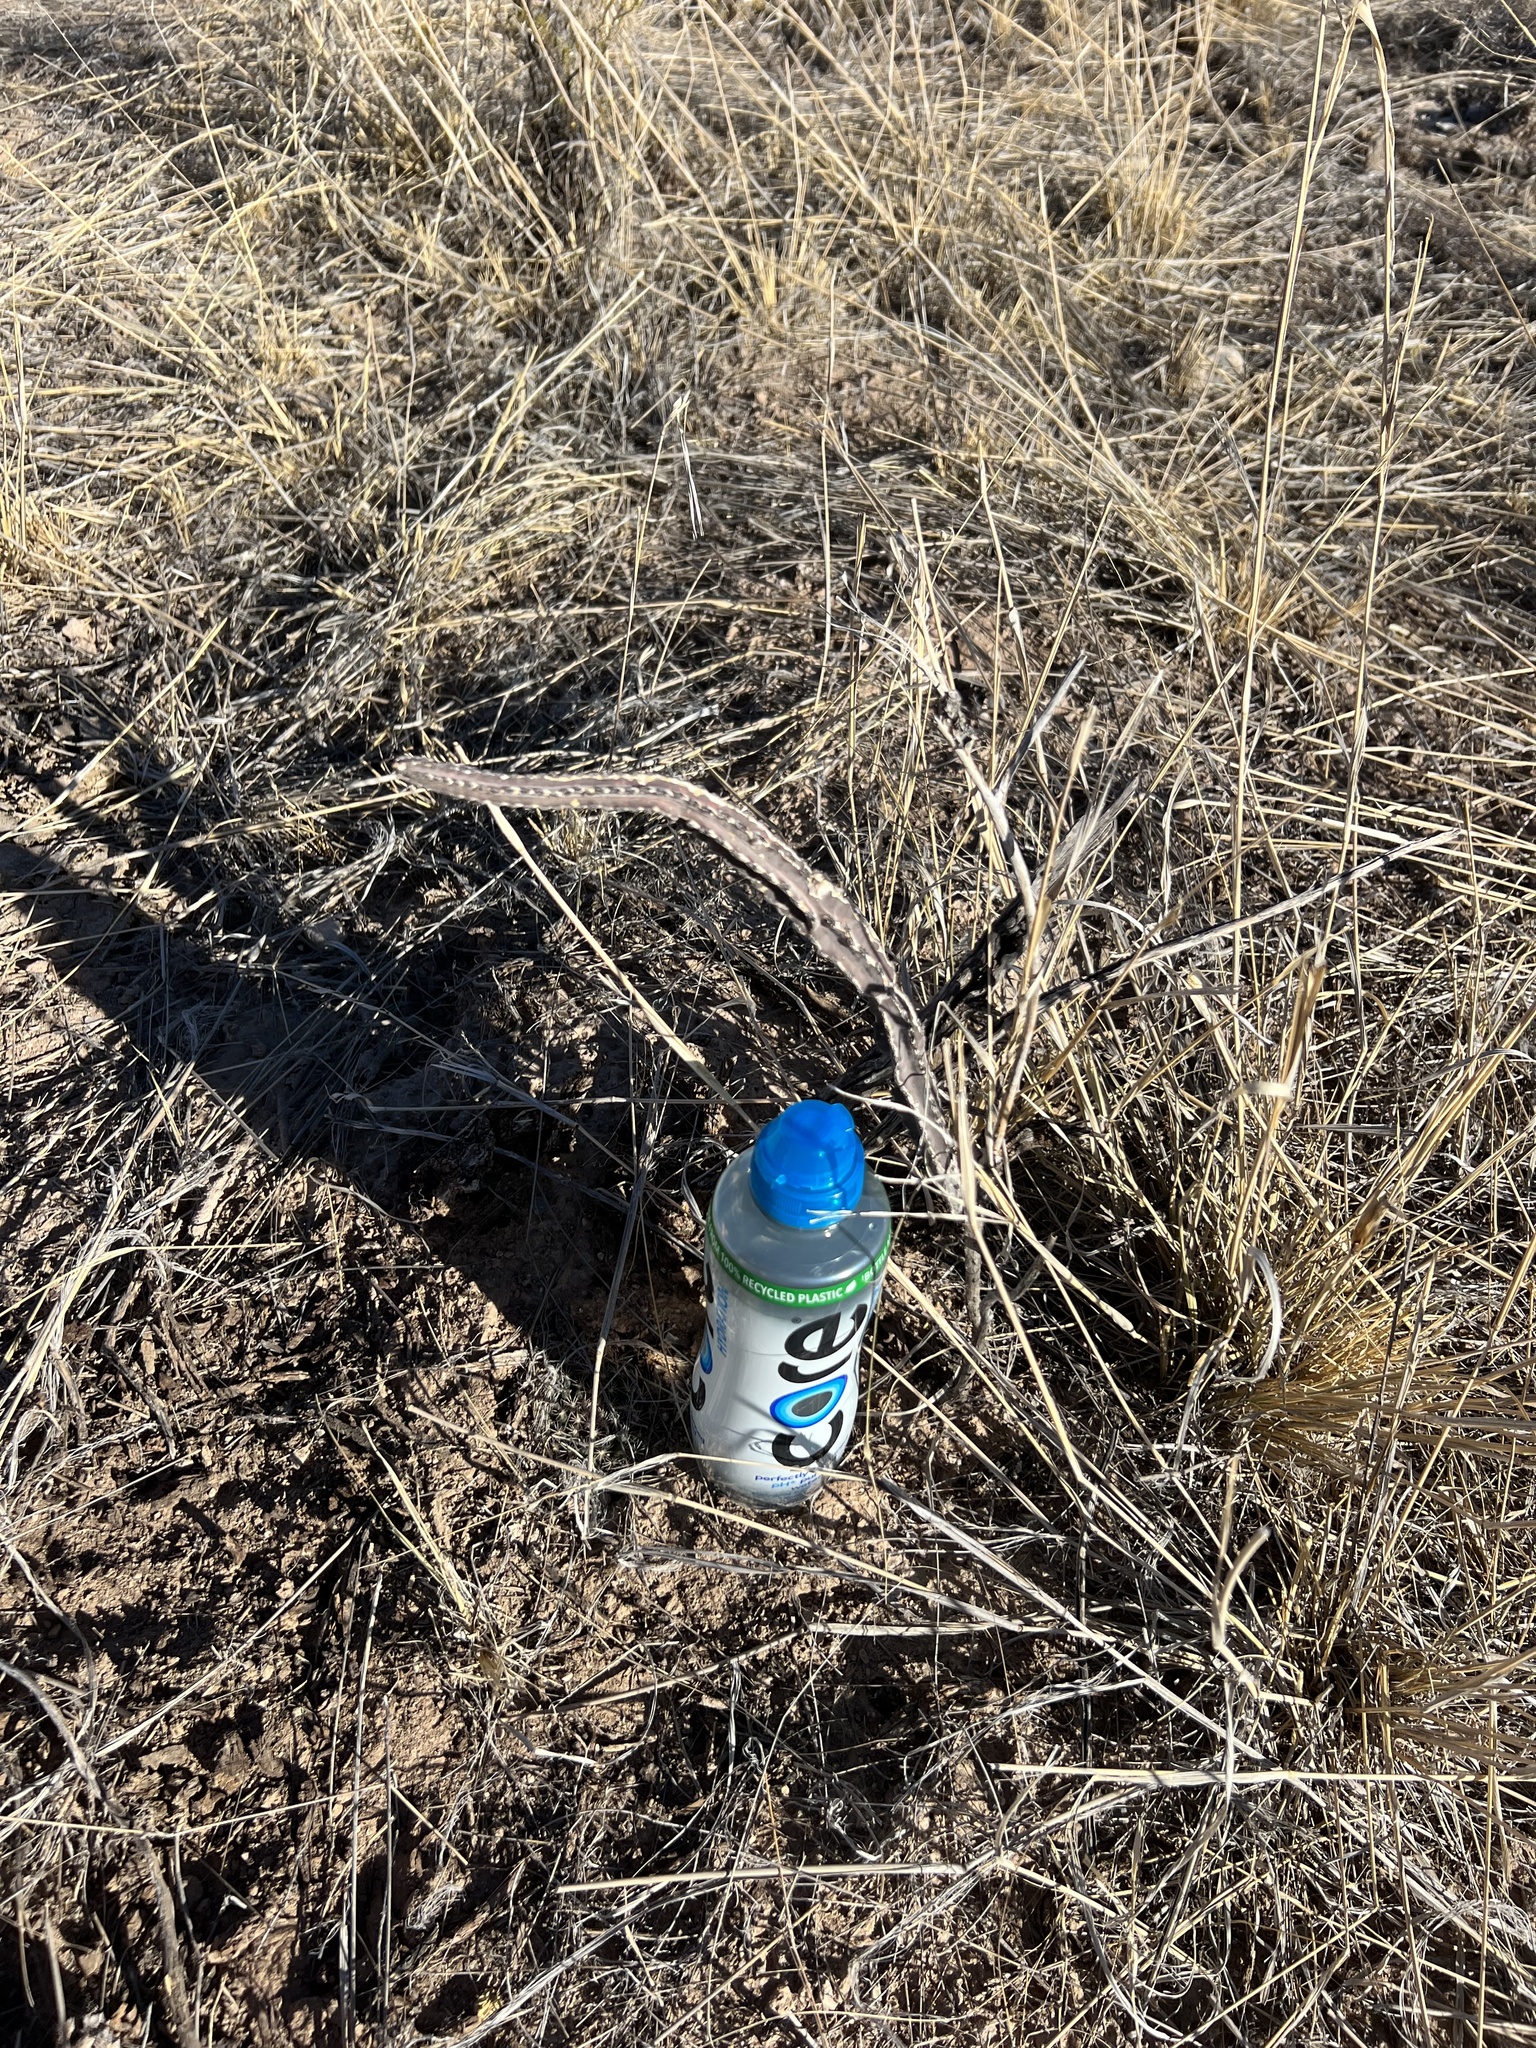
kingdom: Plantae
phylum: Tracheophyta
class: Magnoliopsida
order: Caryophyllales
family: Cactaceae
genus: Peniocereus
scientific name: Peniocereus greggii
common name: Desert night-blooming cereus
